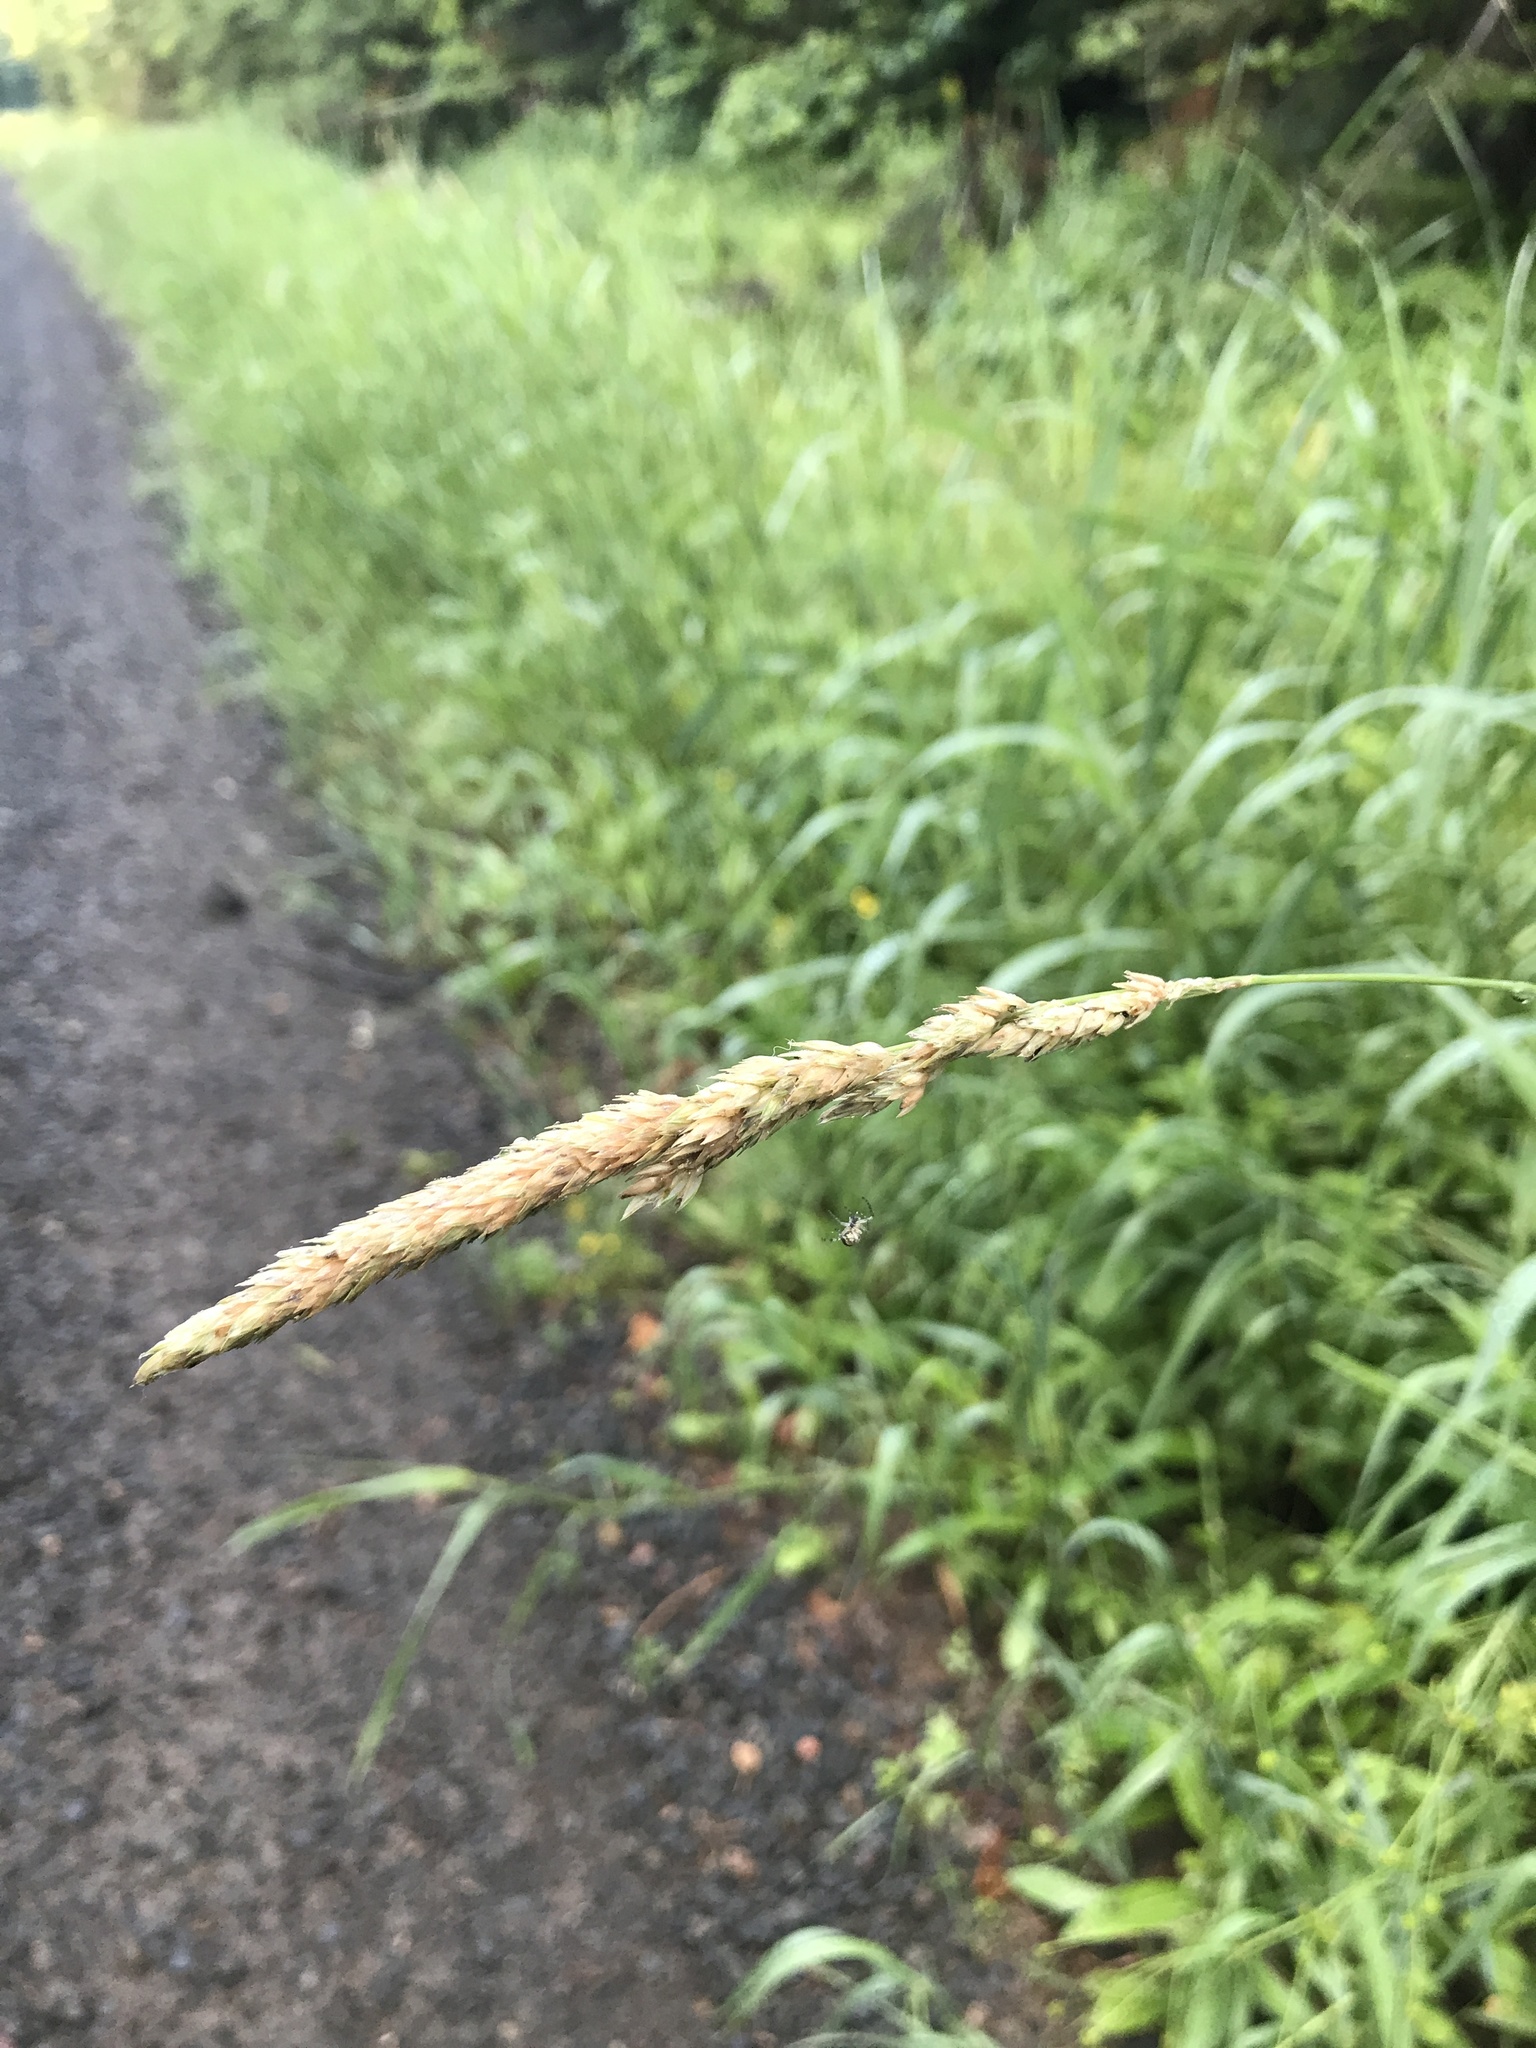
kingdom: Plantae
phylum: Tracheophyta
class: Liliopsida
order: Poales
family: Poaceae
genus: Phalaris
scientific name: Phalaris arundinacea
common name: Reed canary-grass
